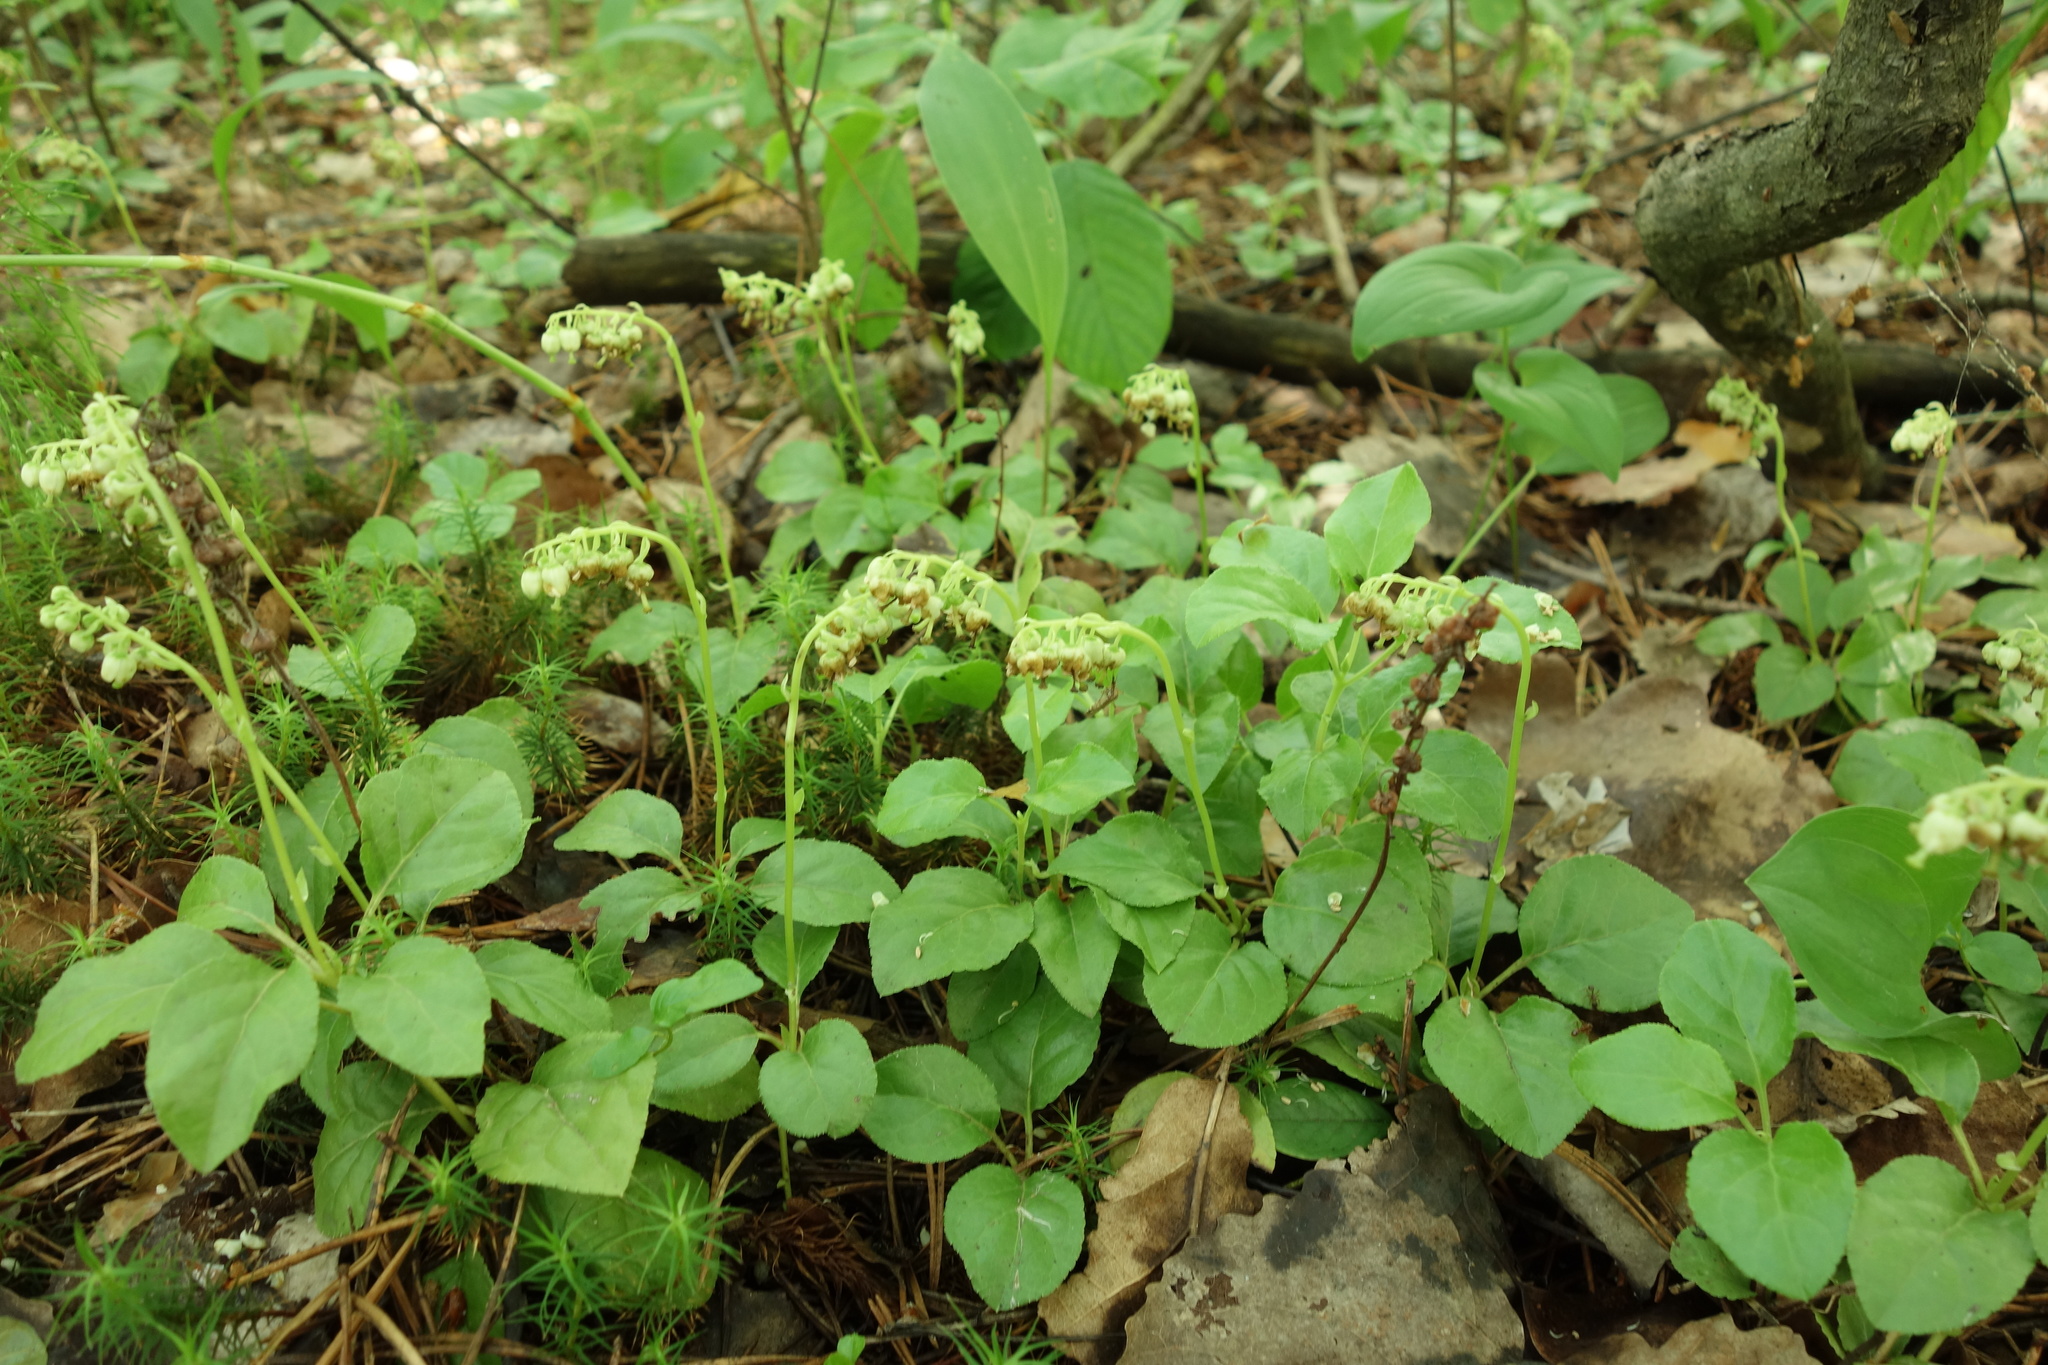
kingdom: Plantae
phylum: Tracheophyta
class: Magnoliopsida
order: Ericales
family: Ericaceae
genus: Orthilia
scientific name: Orthilia secunda
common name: One-sided orthilia
